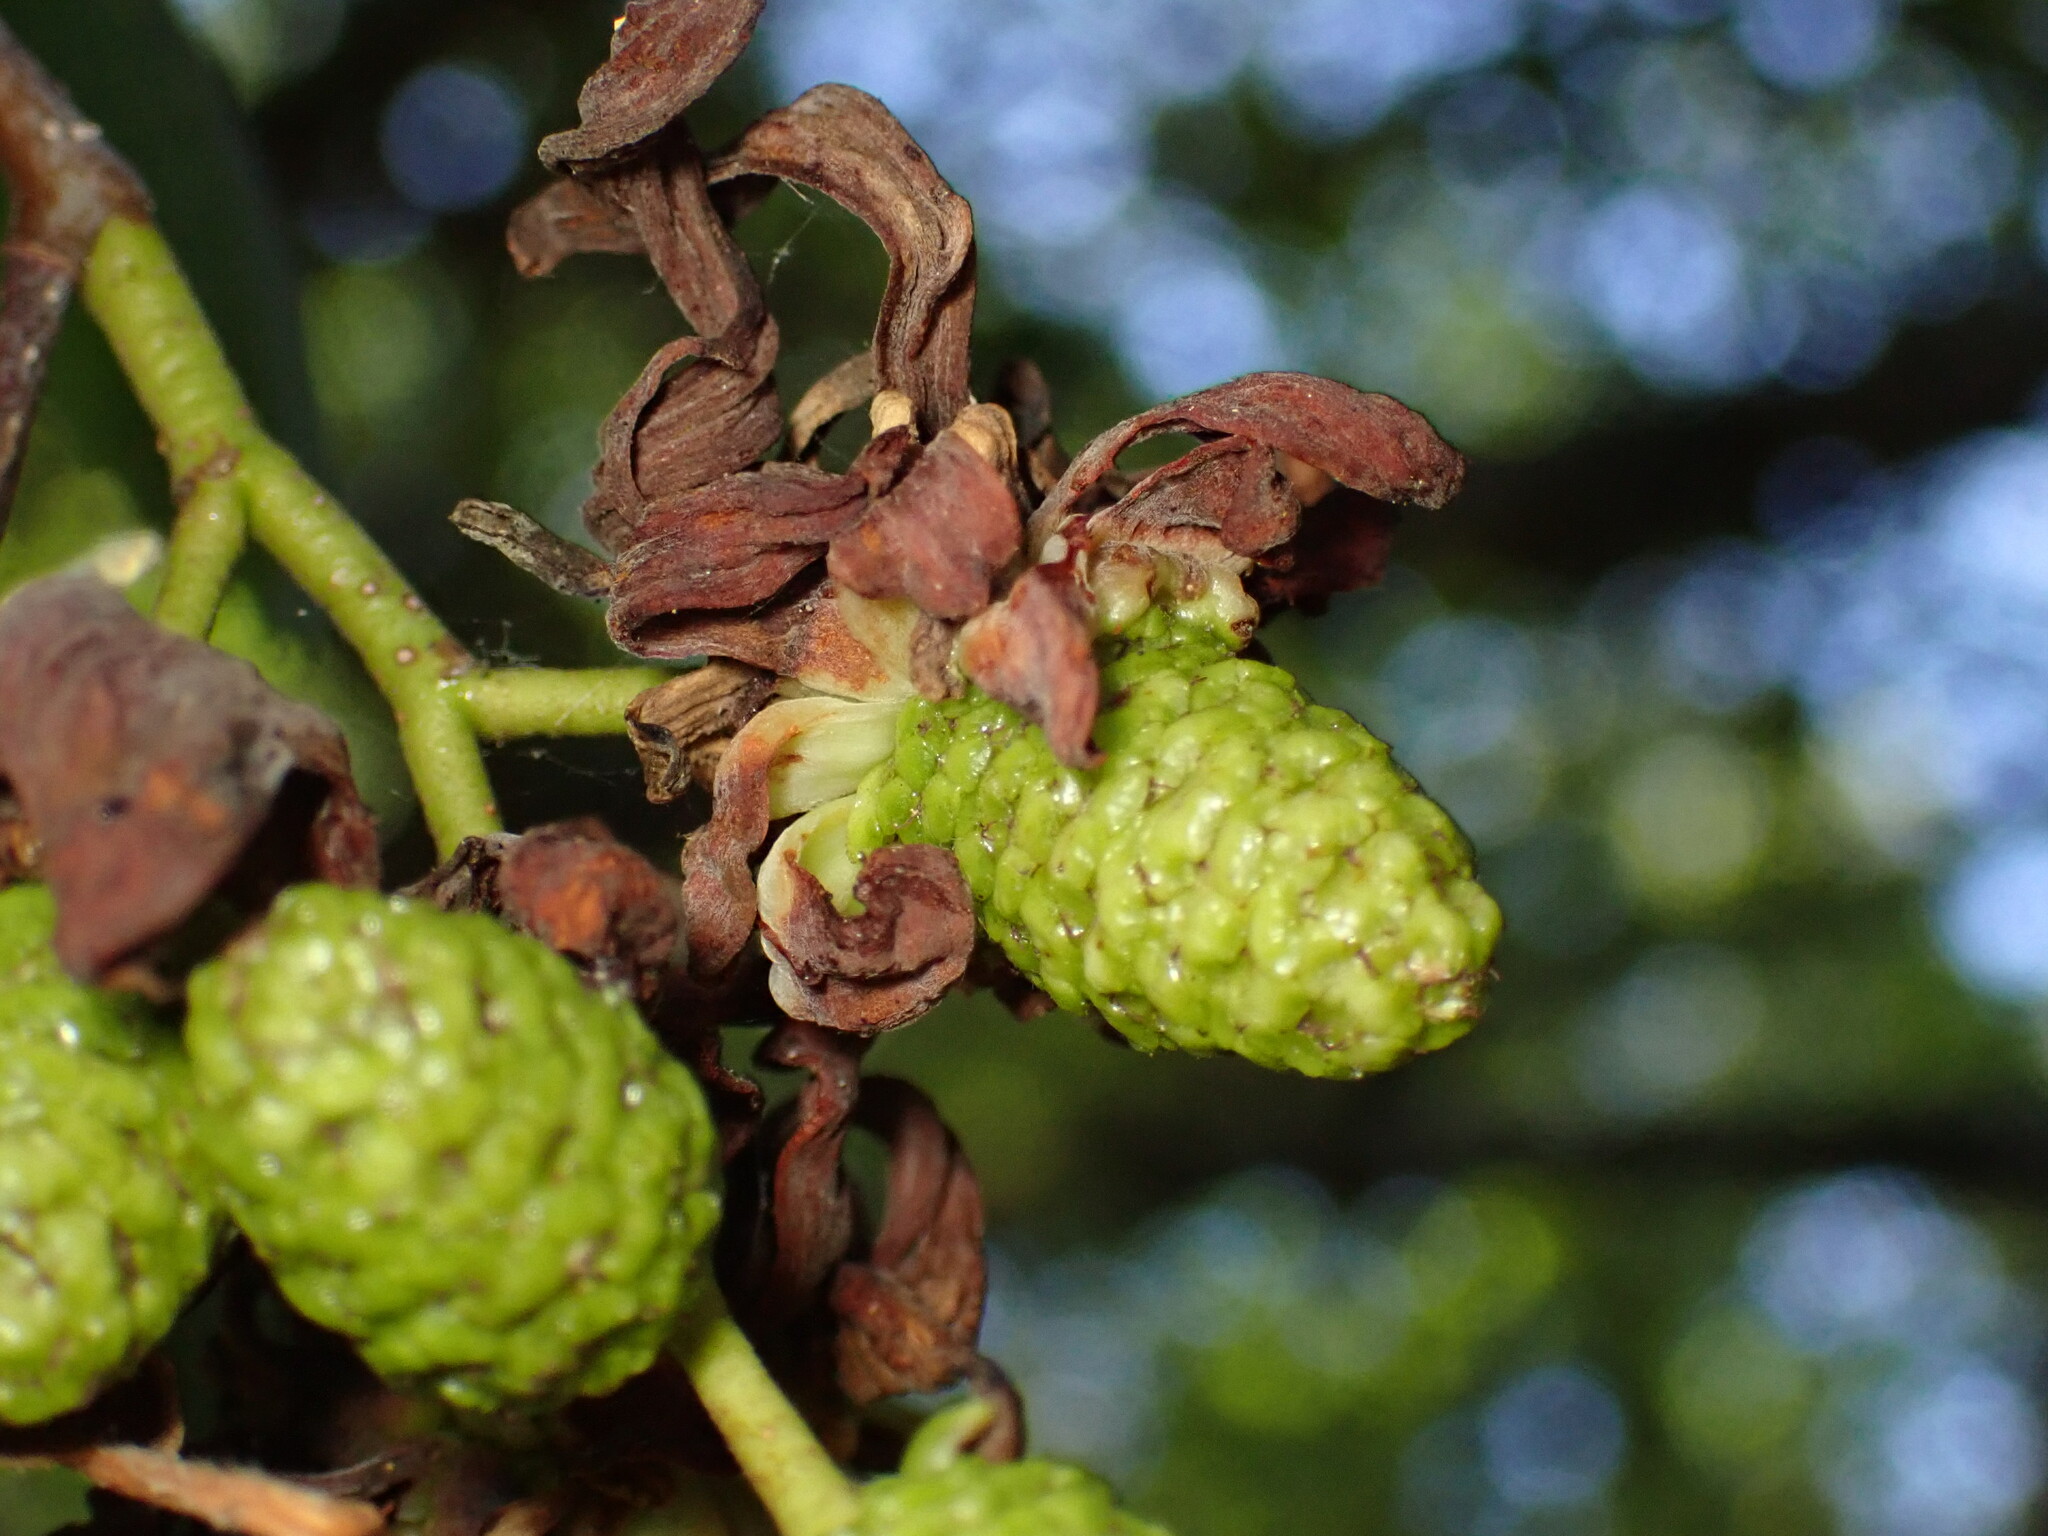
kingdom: Fungi
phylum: Ascomycota
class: Taphrinomycetes
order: Taphrinales
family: Taphrinaceae
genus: Taphrina
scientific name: Taphrina occidentalis
